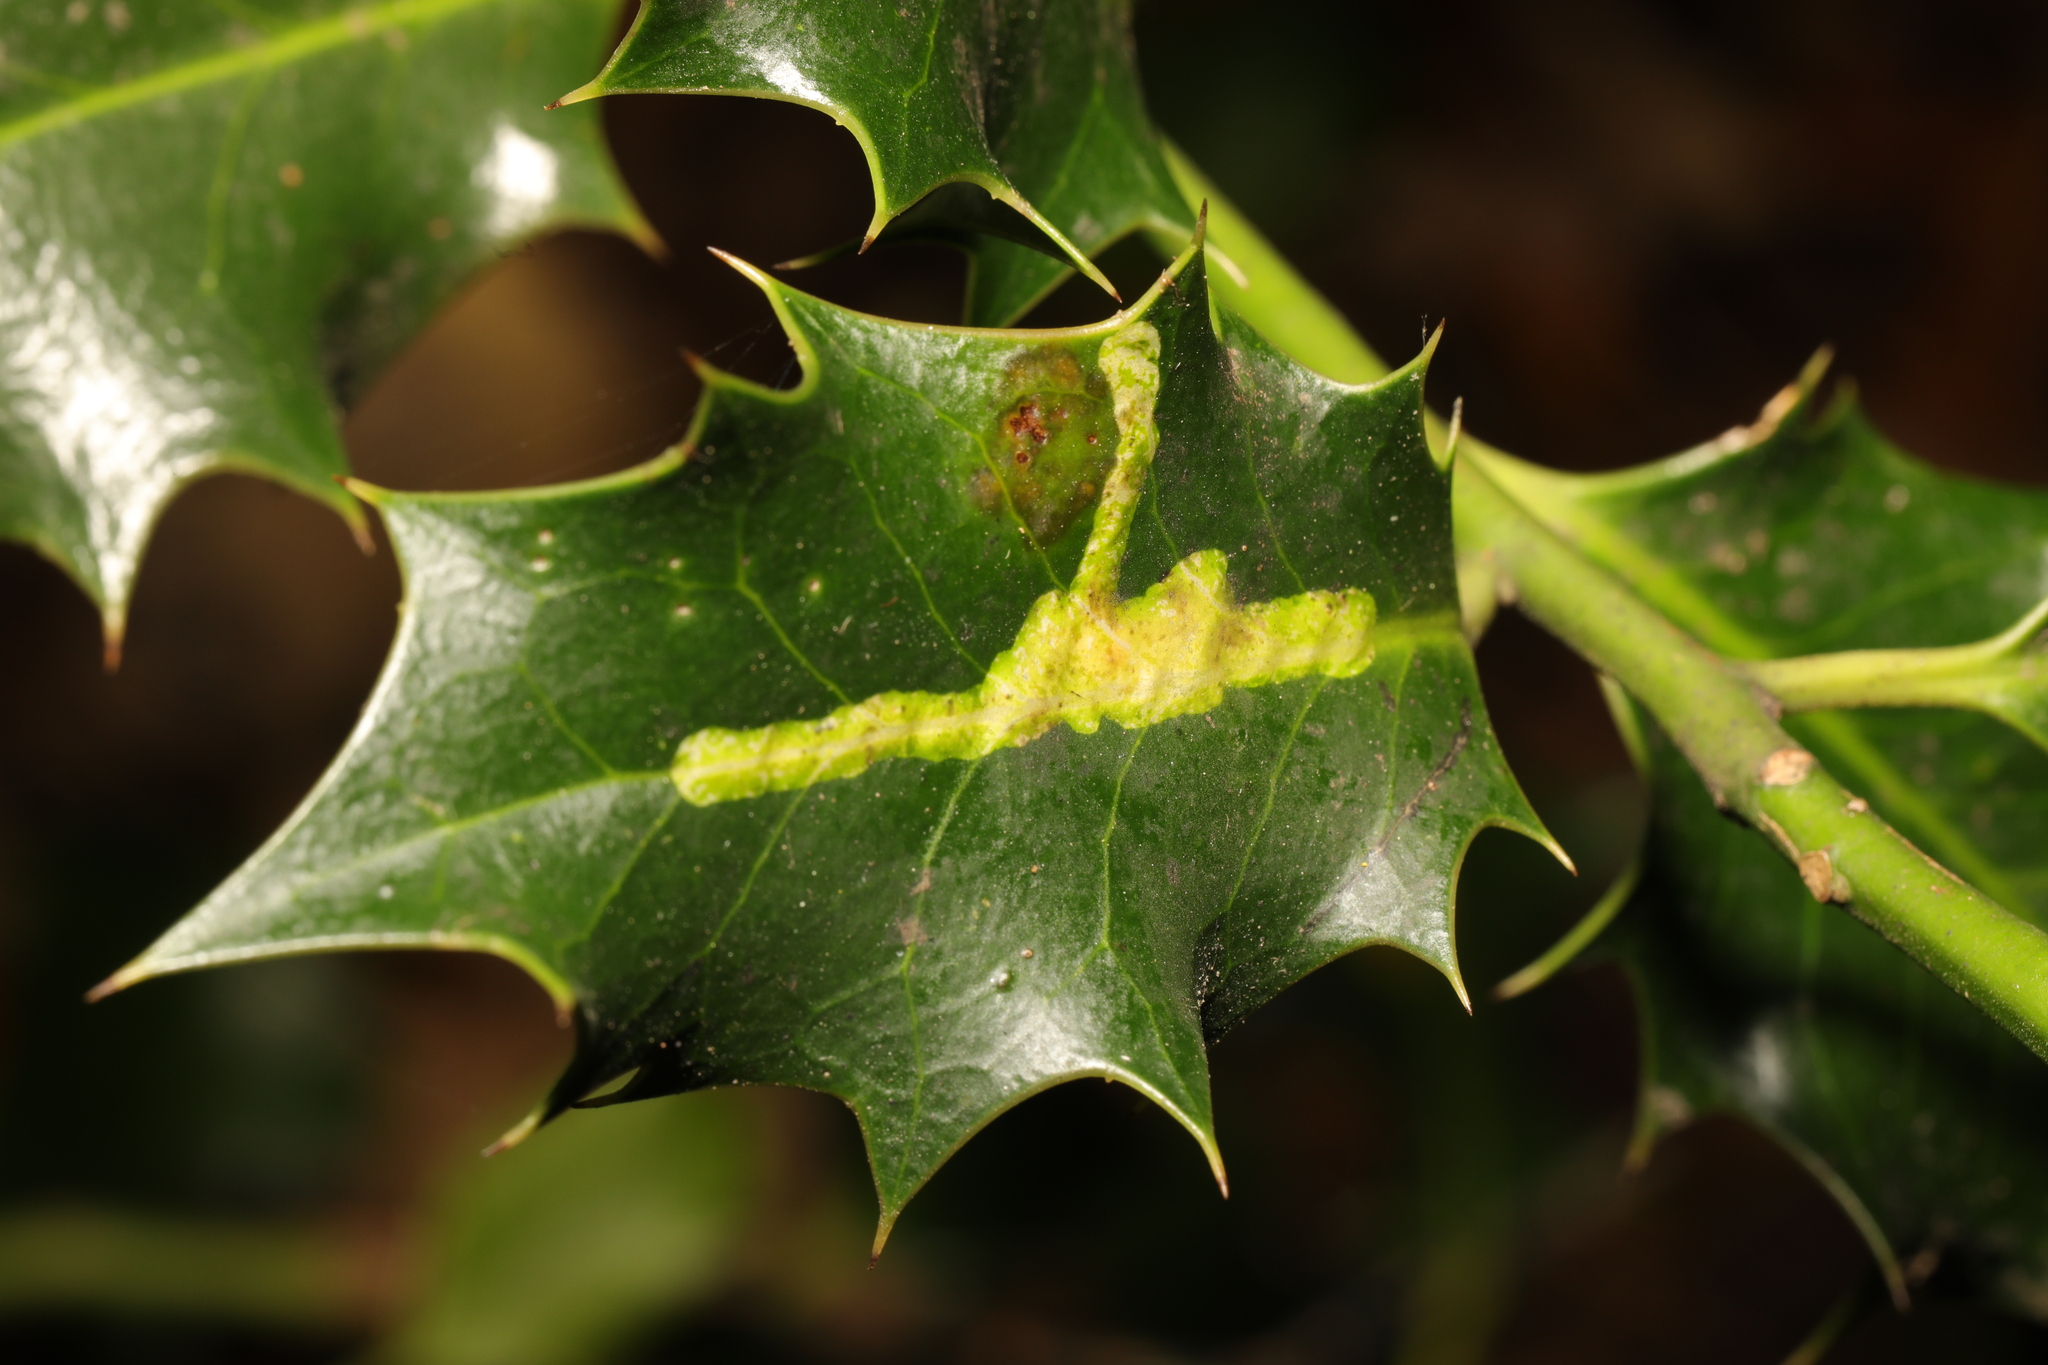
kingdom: Animalia
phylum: Arthropoda
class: Insecta
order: Diptera
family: Agromyzidae
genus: Phytomyza
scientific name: Phytomyza ilicis
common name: Holly leafminer
